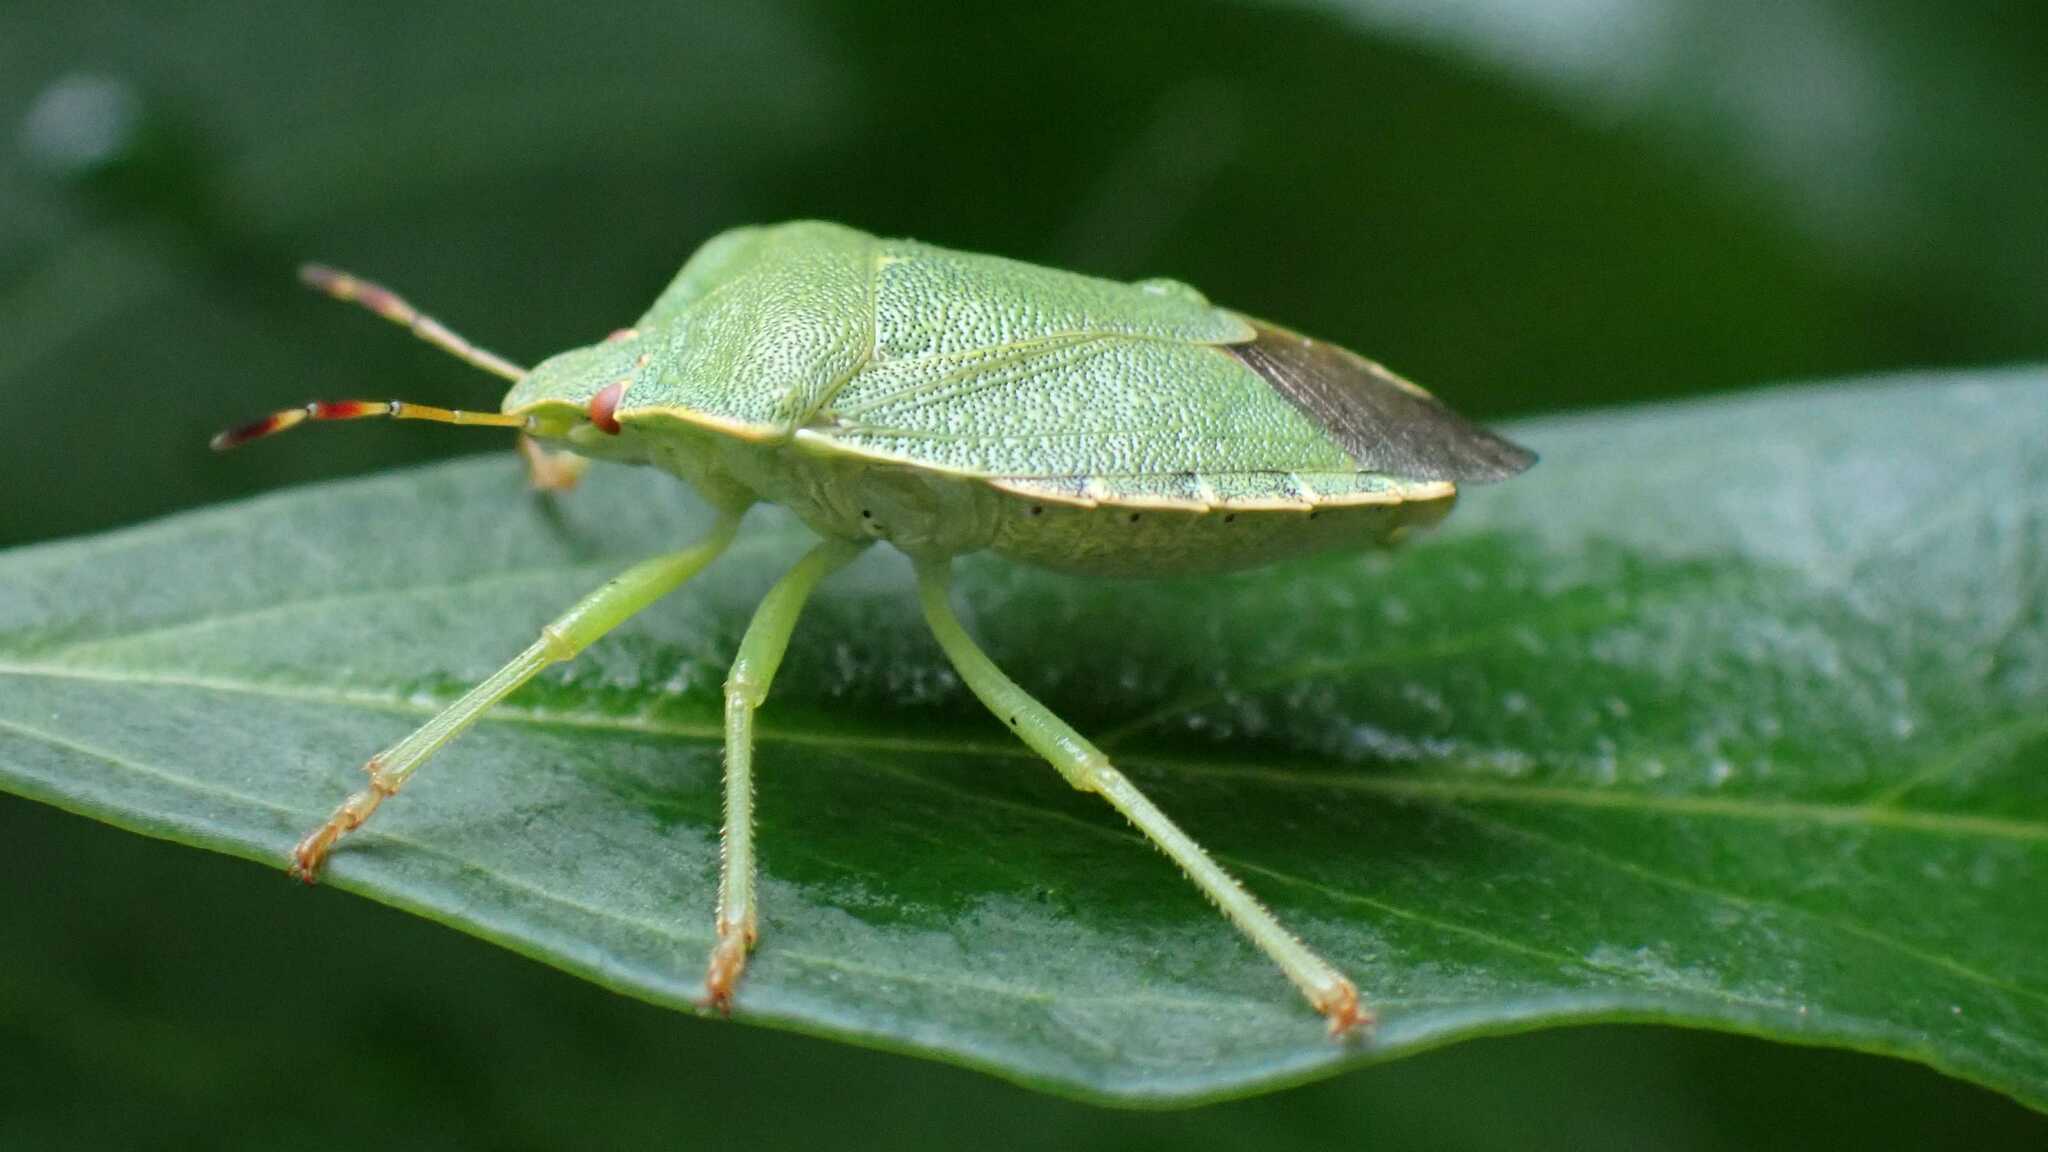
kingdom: Animalia
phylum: Arthropoda
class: Insecta
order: Hemiptera
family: Pentatomidae
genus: Palomena
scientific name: Palomena prasina
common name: Green shieldbug
